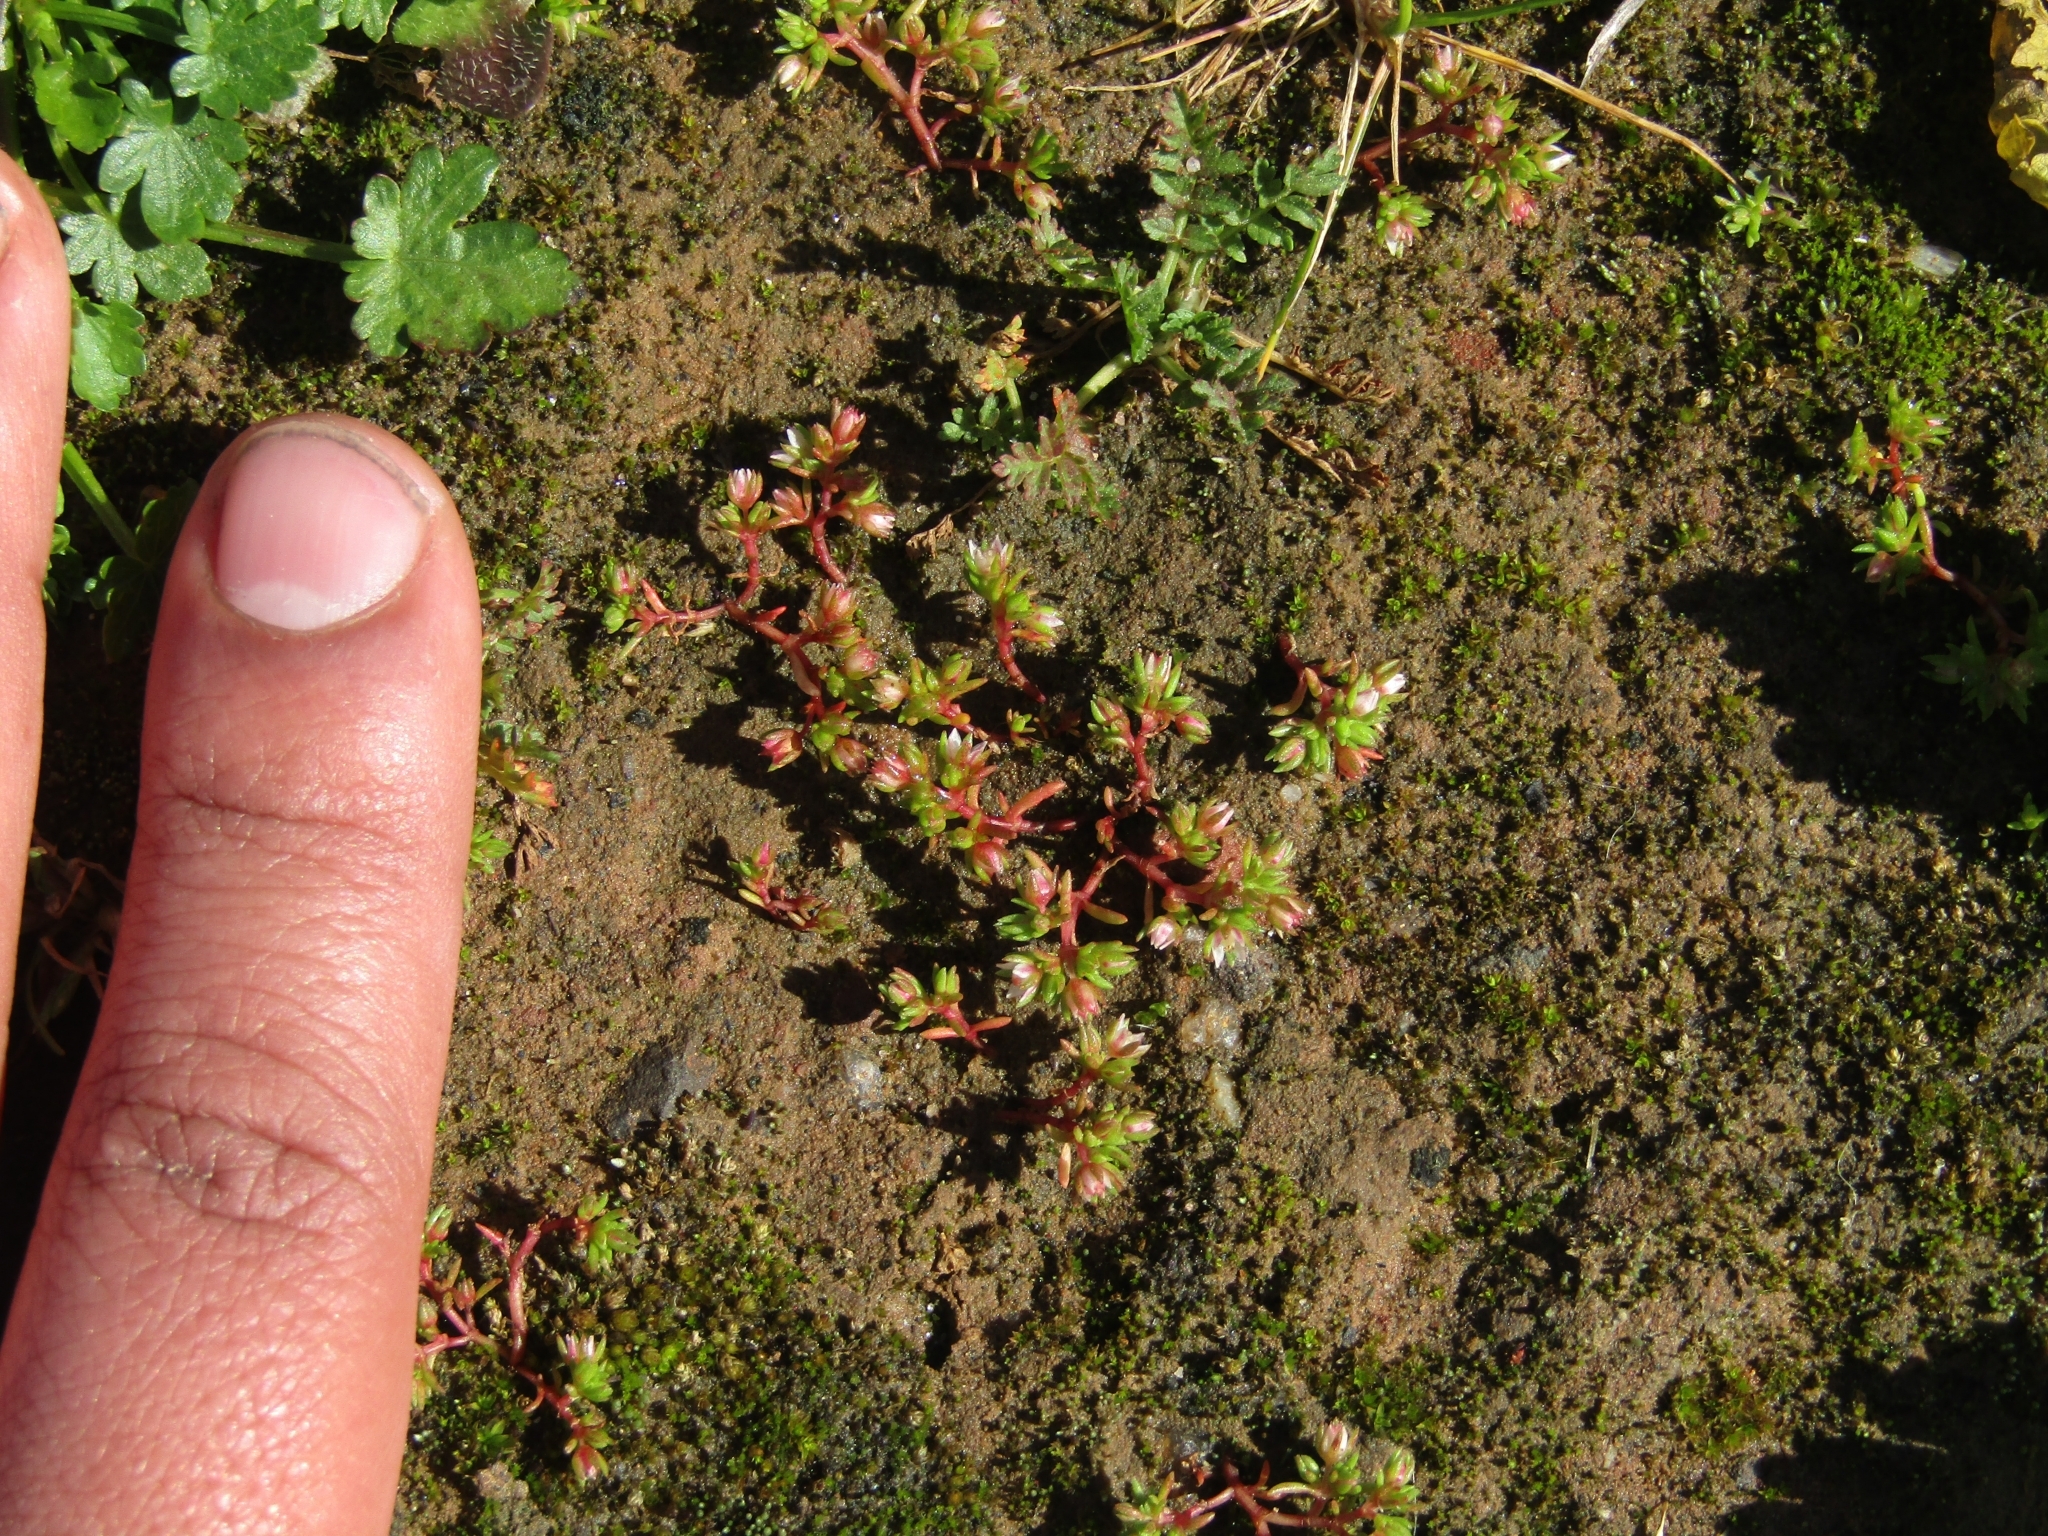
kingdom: Plantae
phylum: Tracheophyta
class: Magnoliopsida
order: Saxifragales
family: Crassulaceae
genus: Crassula
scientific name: Crassula decumbens
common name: Scilly pigmyweed
